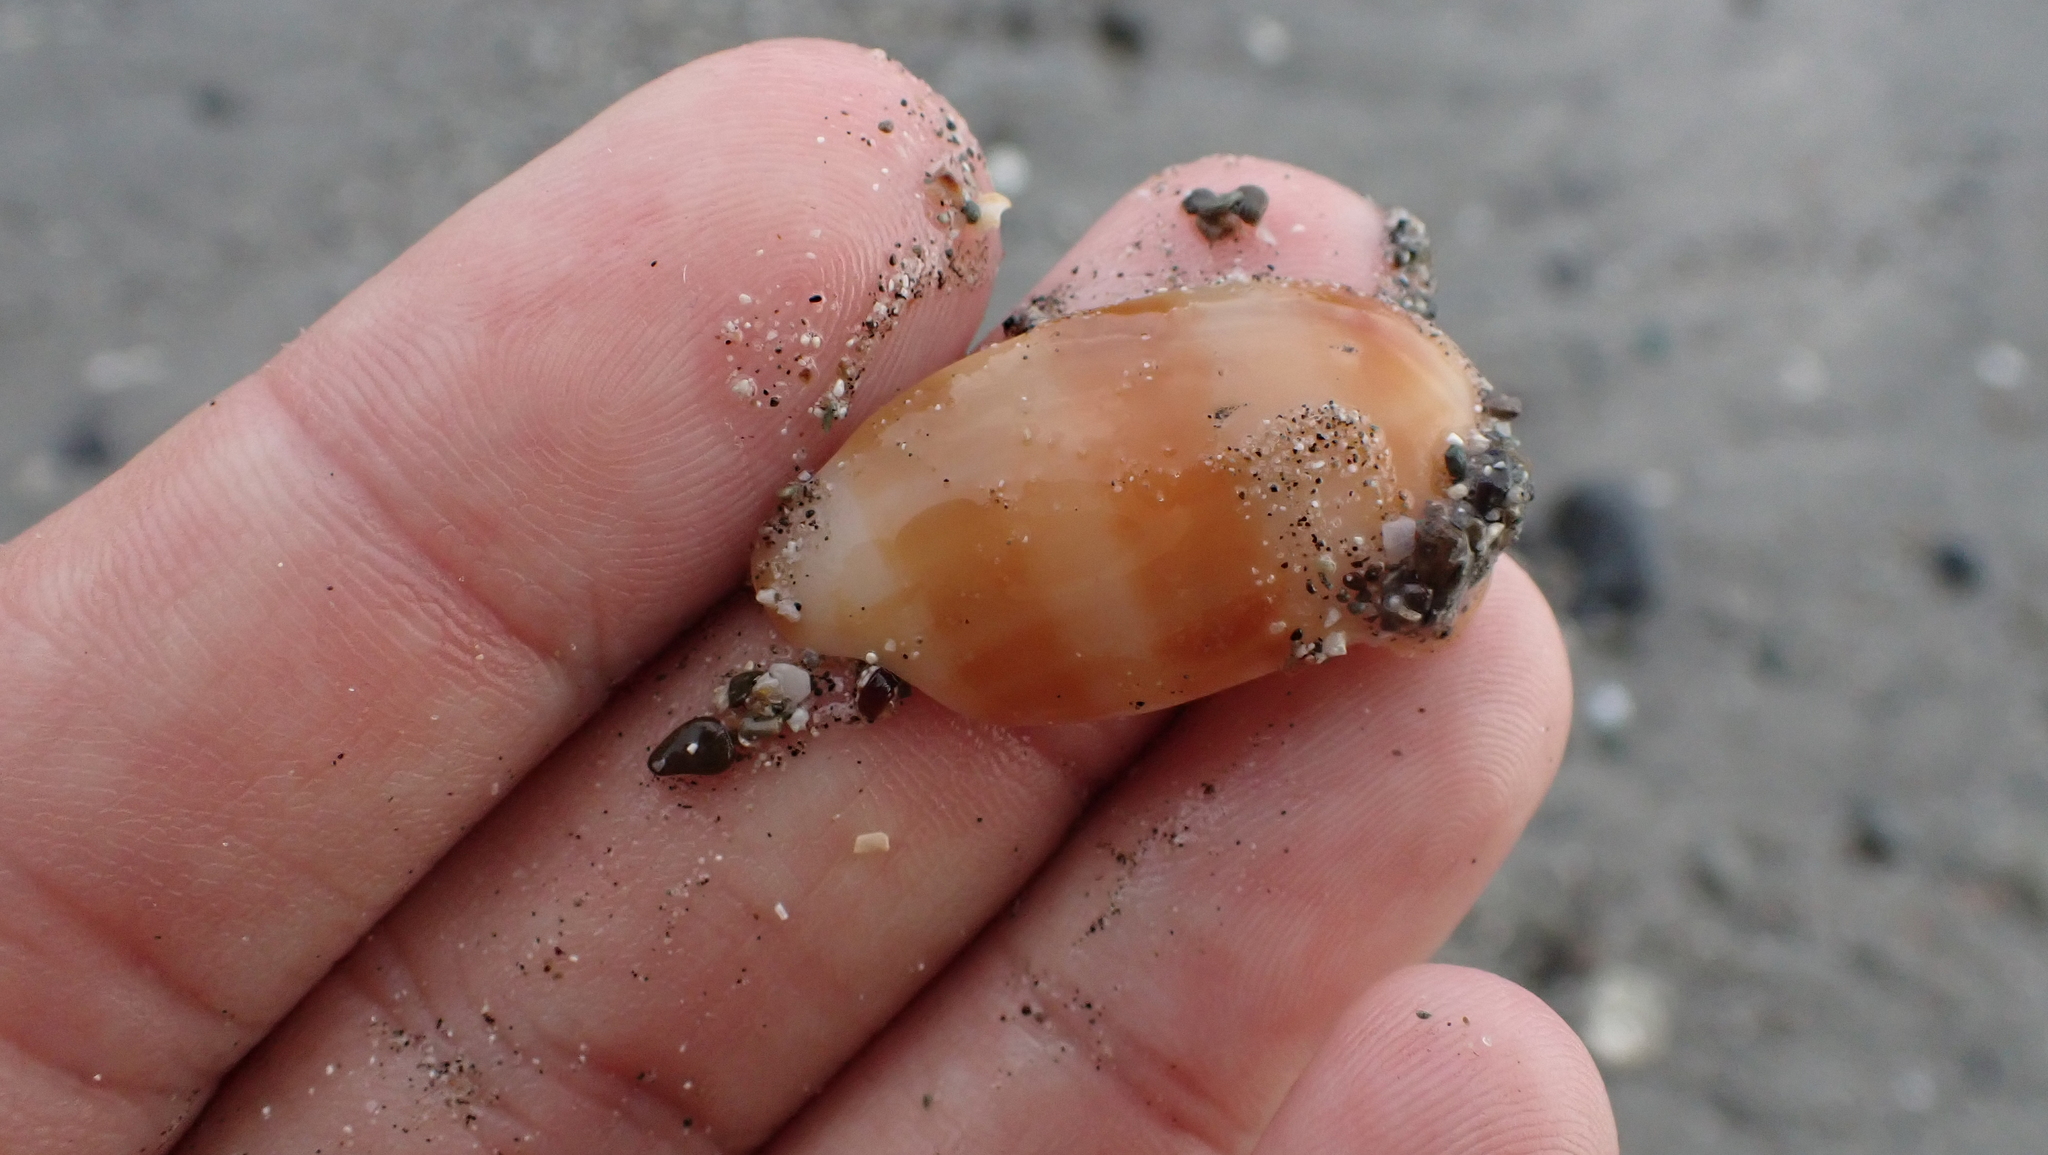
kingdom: Animalia
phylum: Mollusca
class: Gastropoda
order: Littorinimorpha
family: Cypraeidae
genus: Macrocypraea
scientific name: Macrocypraea cervinetta
